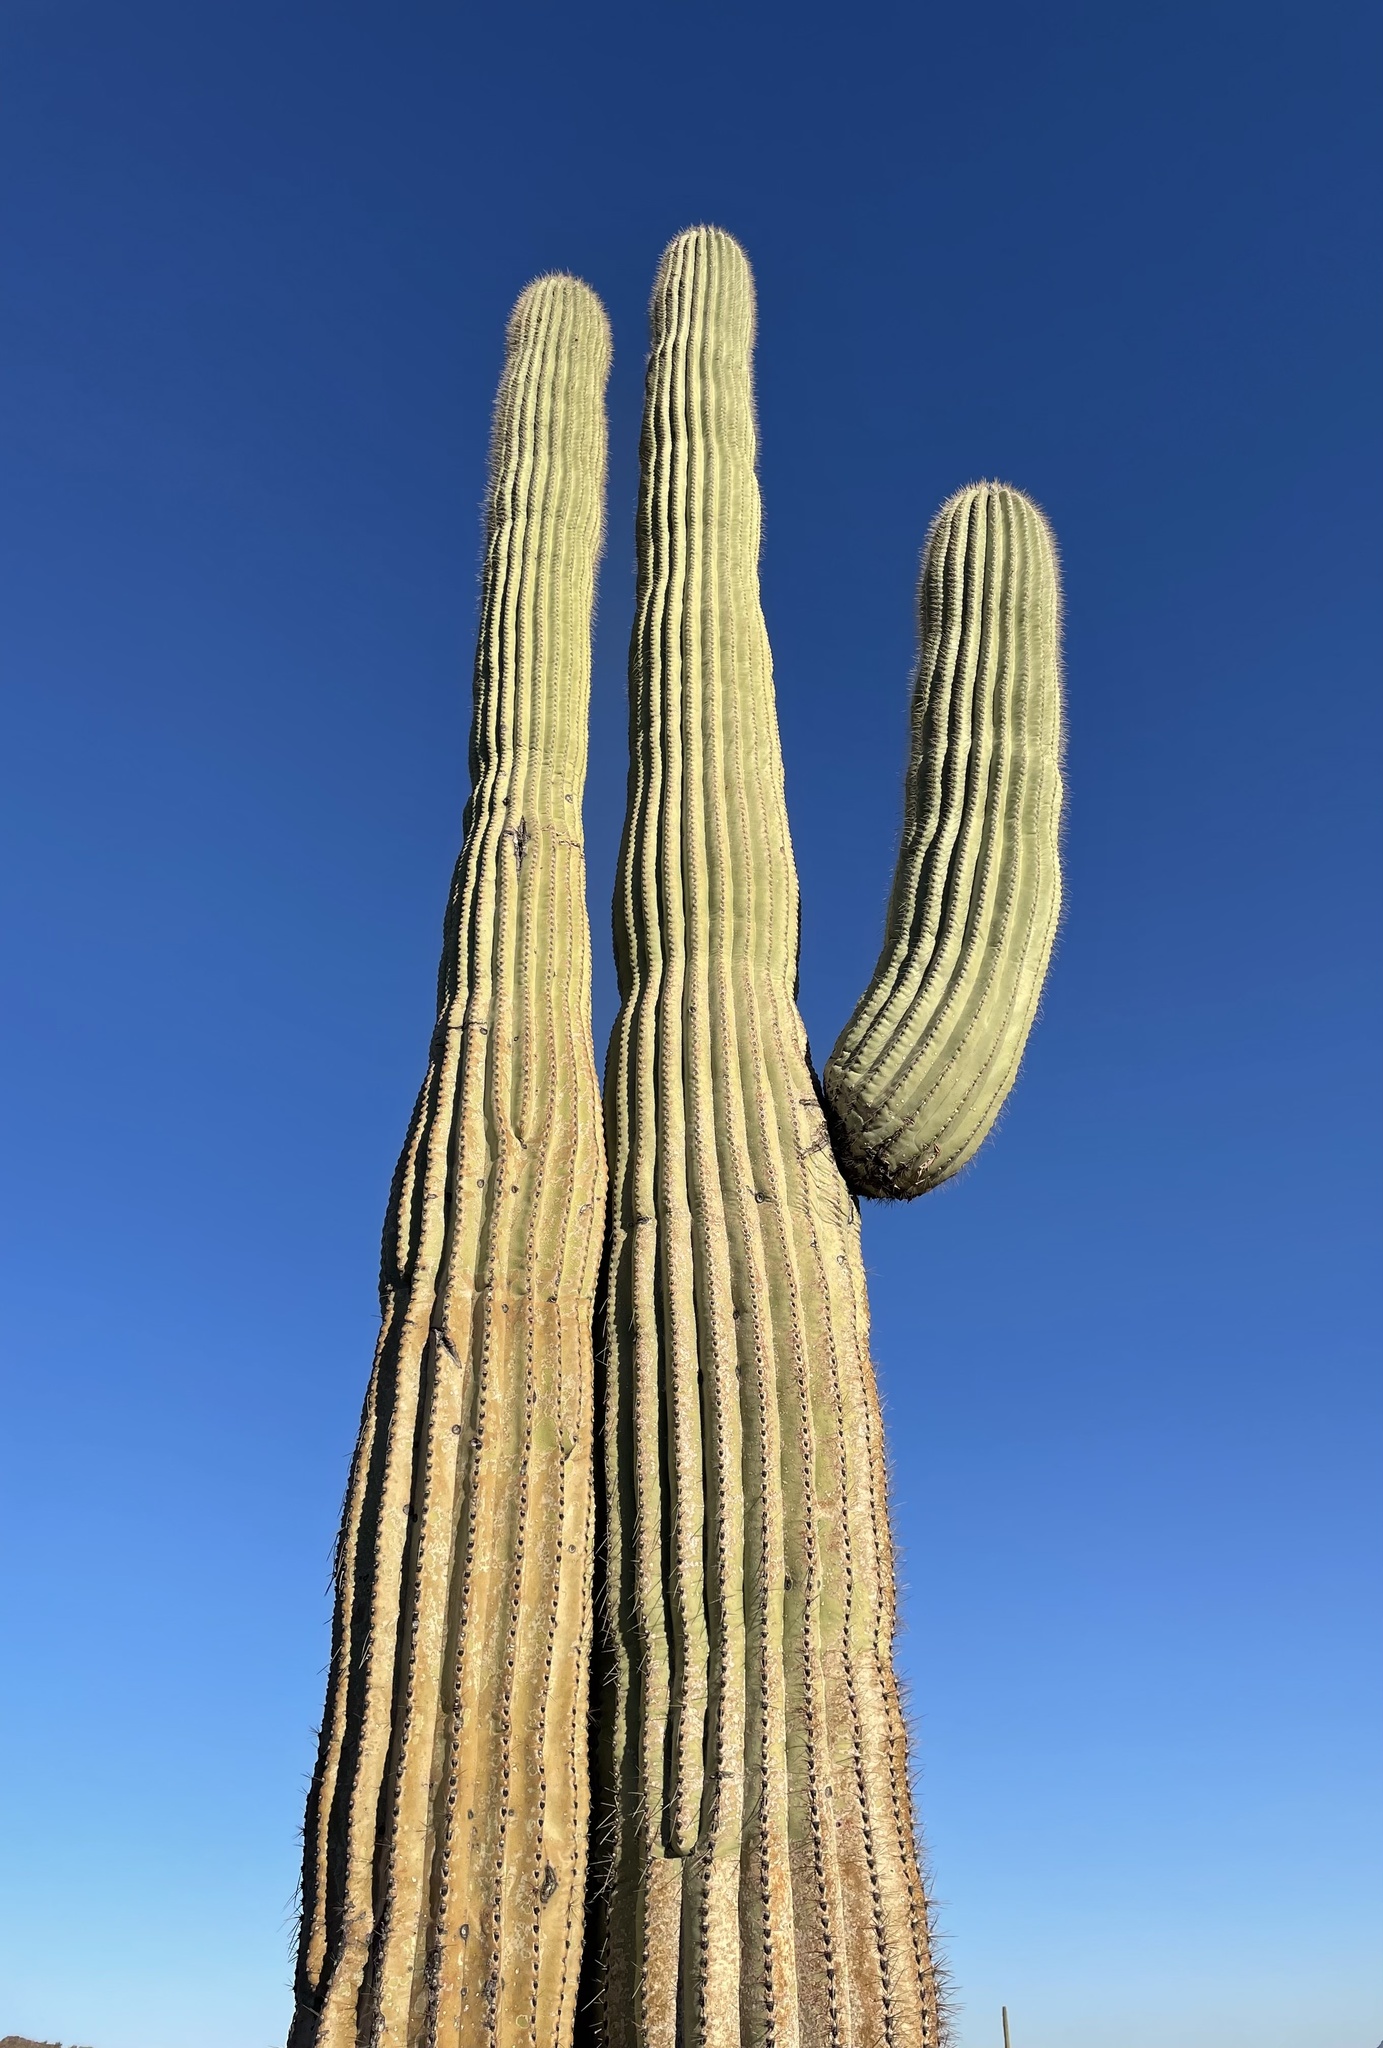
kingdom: Plantae
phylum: Tracheophyta
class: Magnoliopsida
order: Caryophyllales
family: Cactaceae
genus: Carnegiea
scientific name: Carnegiea gigantea
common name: Saguaro
